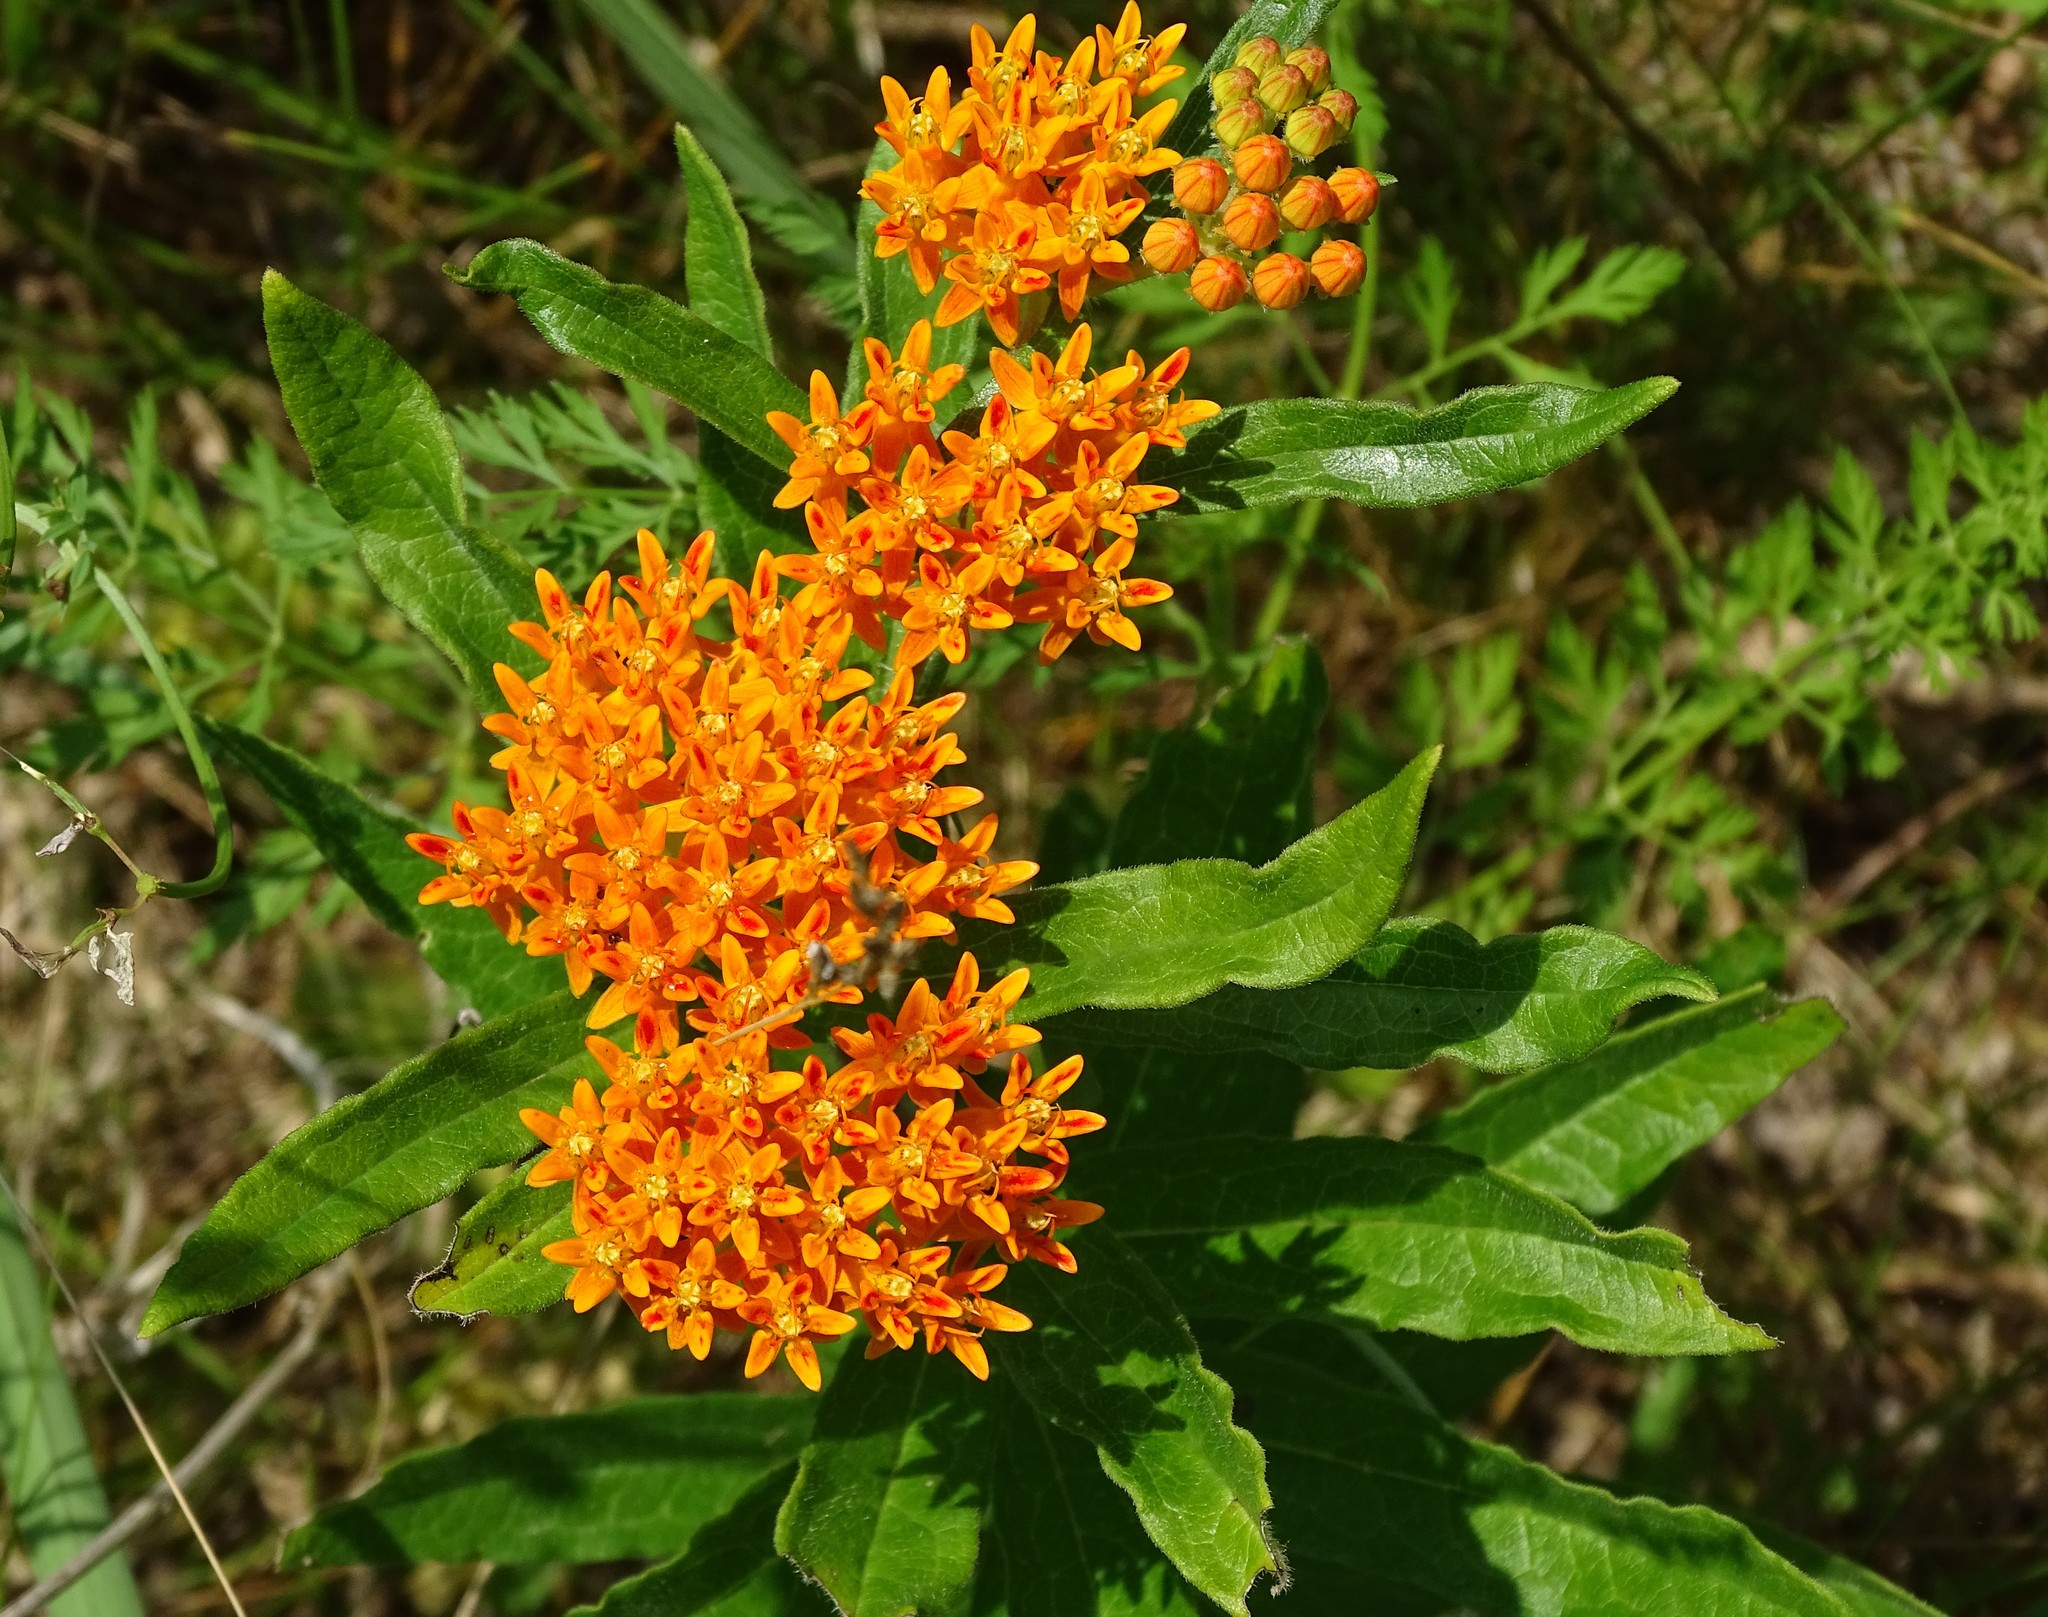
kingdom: Plantae
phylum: Tracheophyta
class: Magnoliopsida
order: Gentianales
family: Apocynaceae
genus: Asclepias
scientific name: Asclepias tuberosa
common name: Butterfly milkweed
